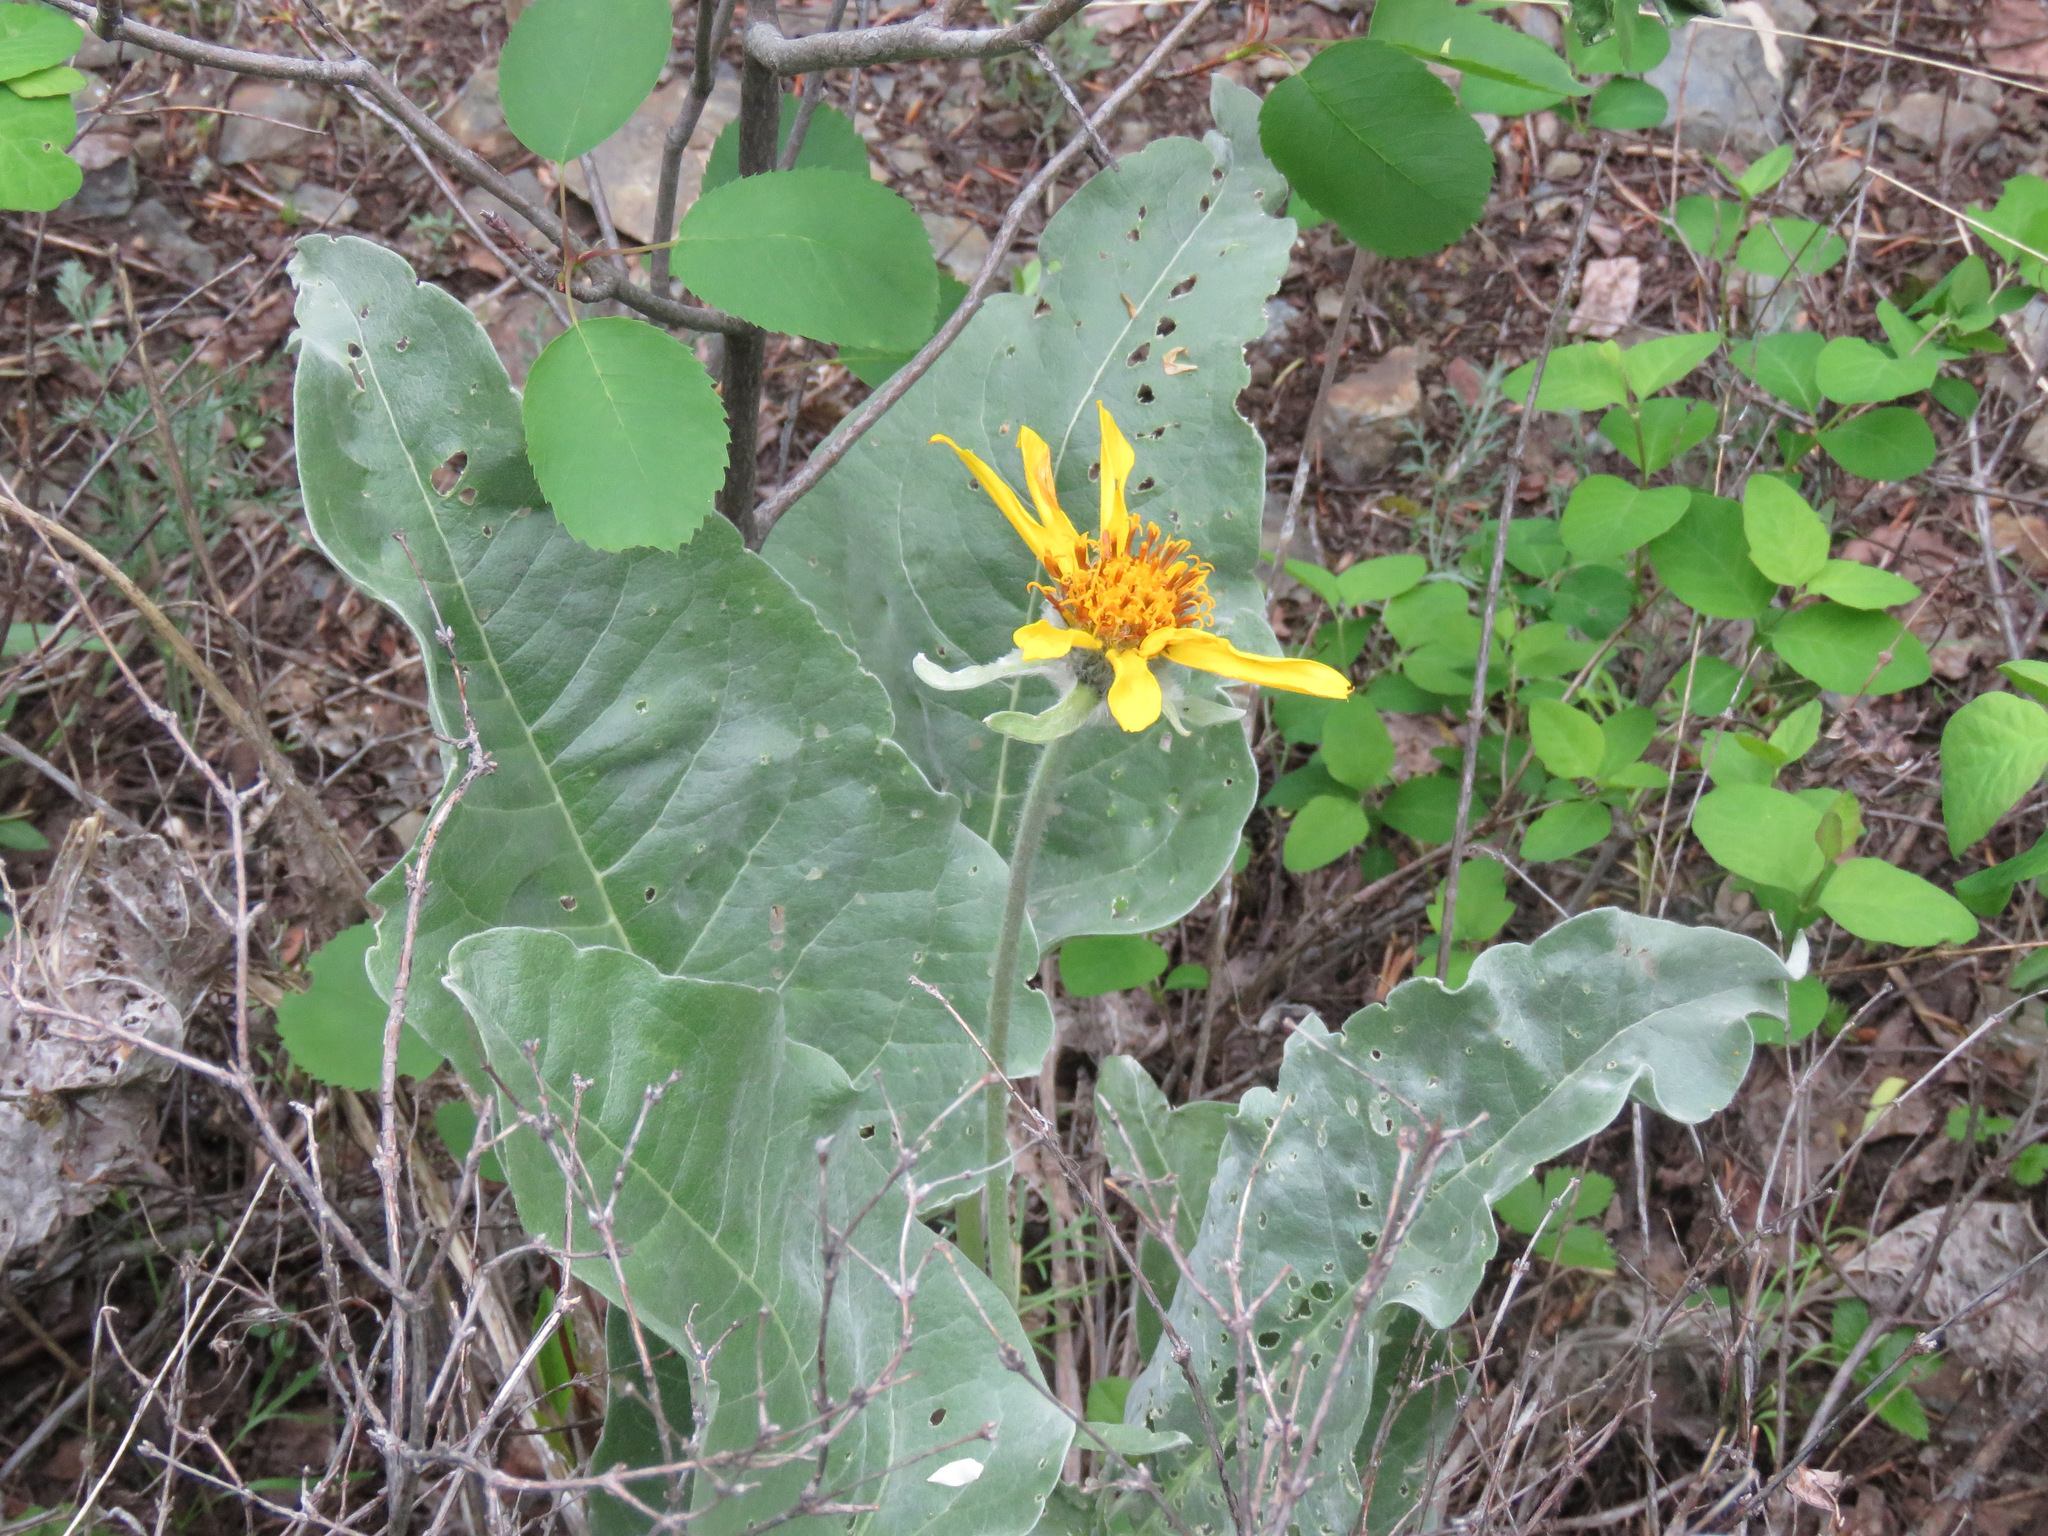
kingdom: Plantae
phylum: Tracheophyta
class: Magnoliopsida
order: Asterales
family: Asteraceae
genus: Wyethia
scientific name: Wyethia sagittata
